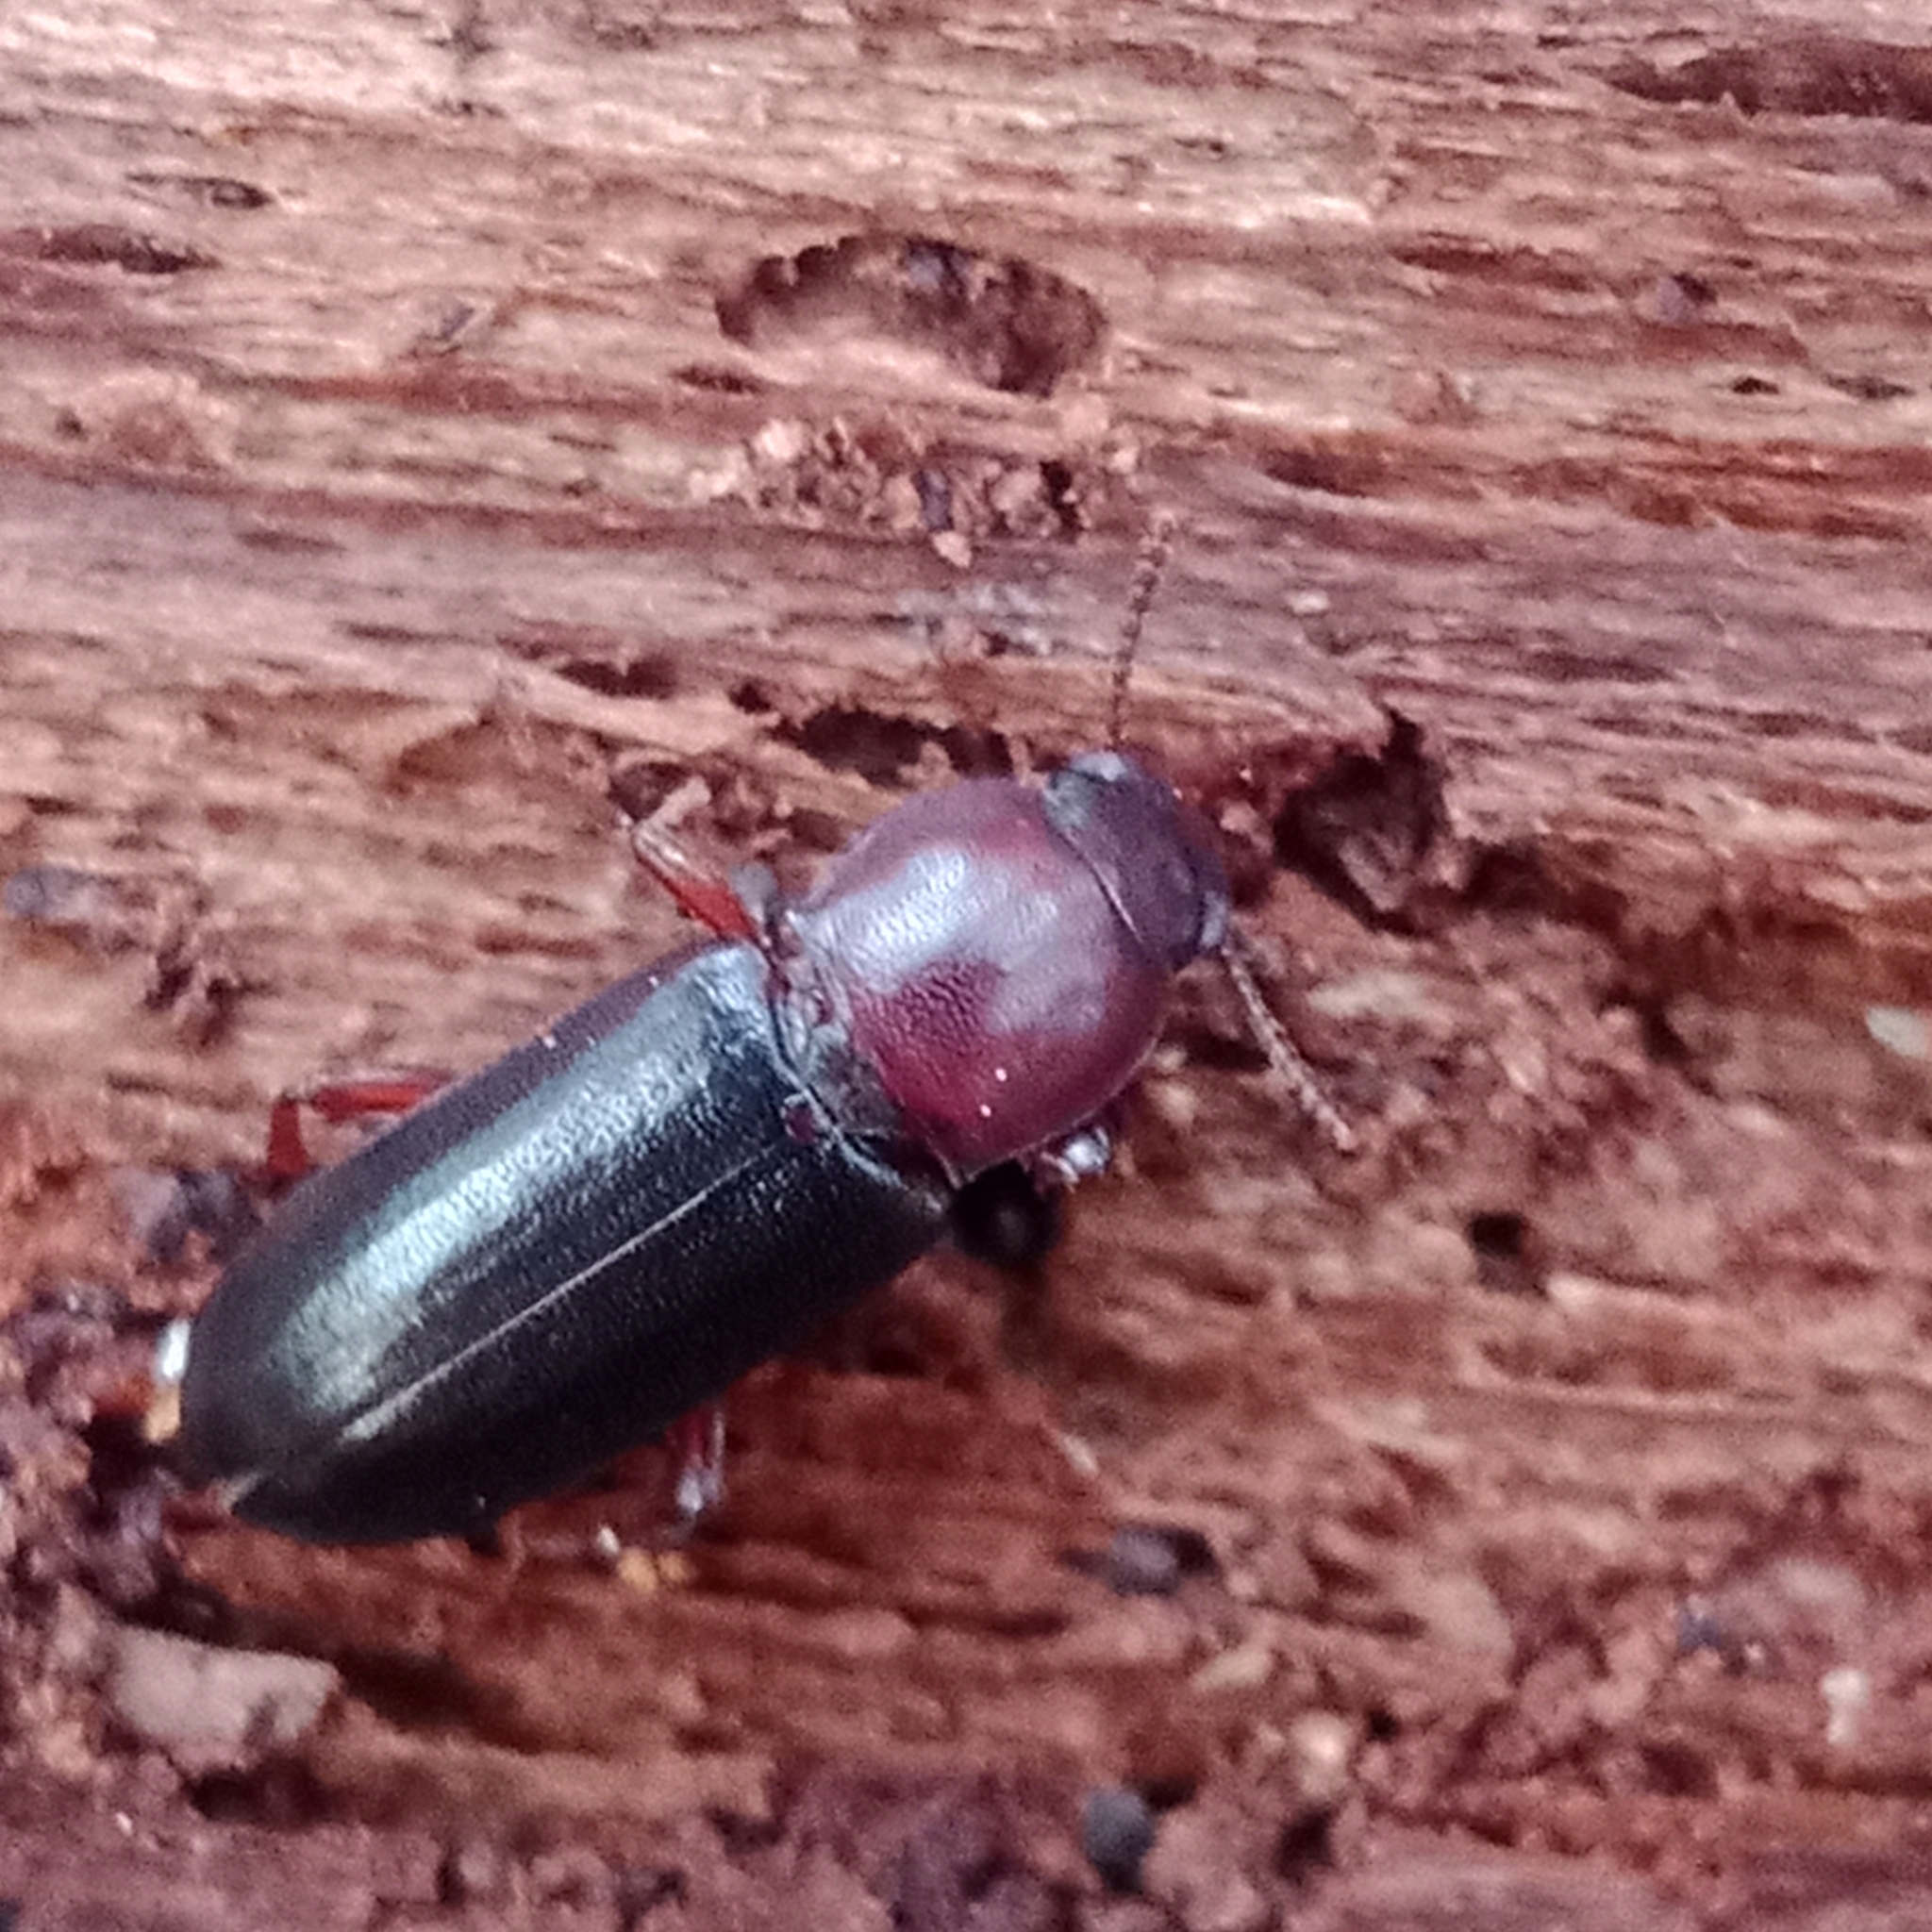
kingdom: Animalia
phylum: Arthropoda
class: Insecta
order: Coleoptera
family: Tenebrionidae
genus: Bius
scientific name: Bius thoracicus
